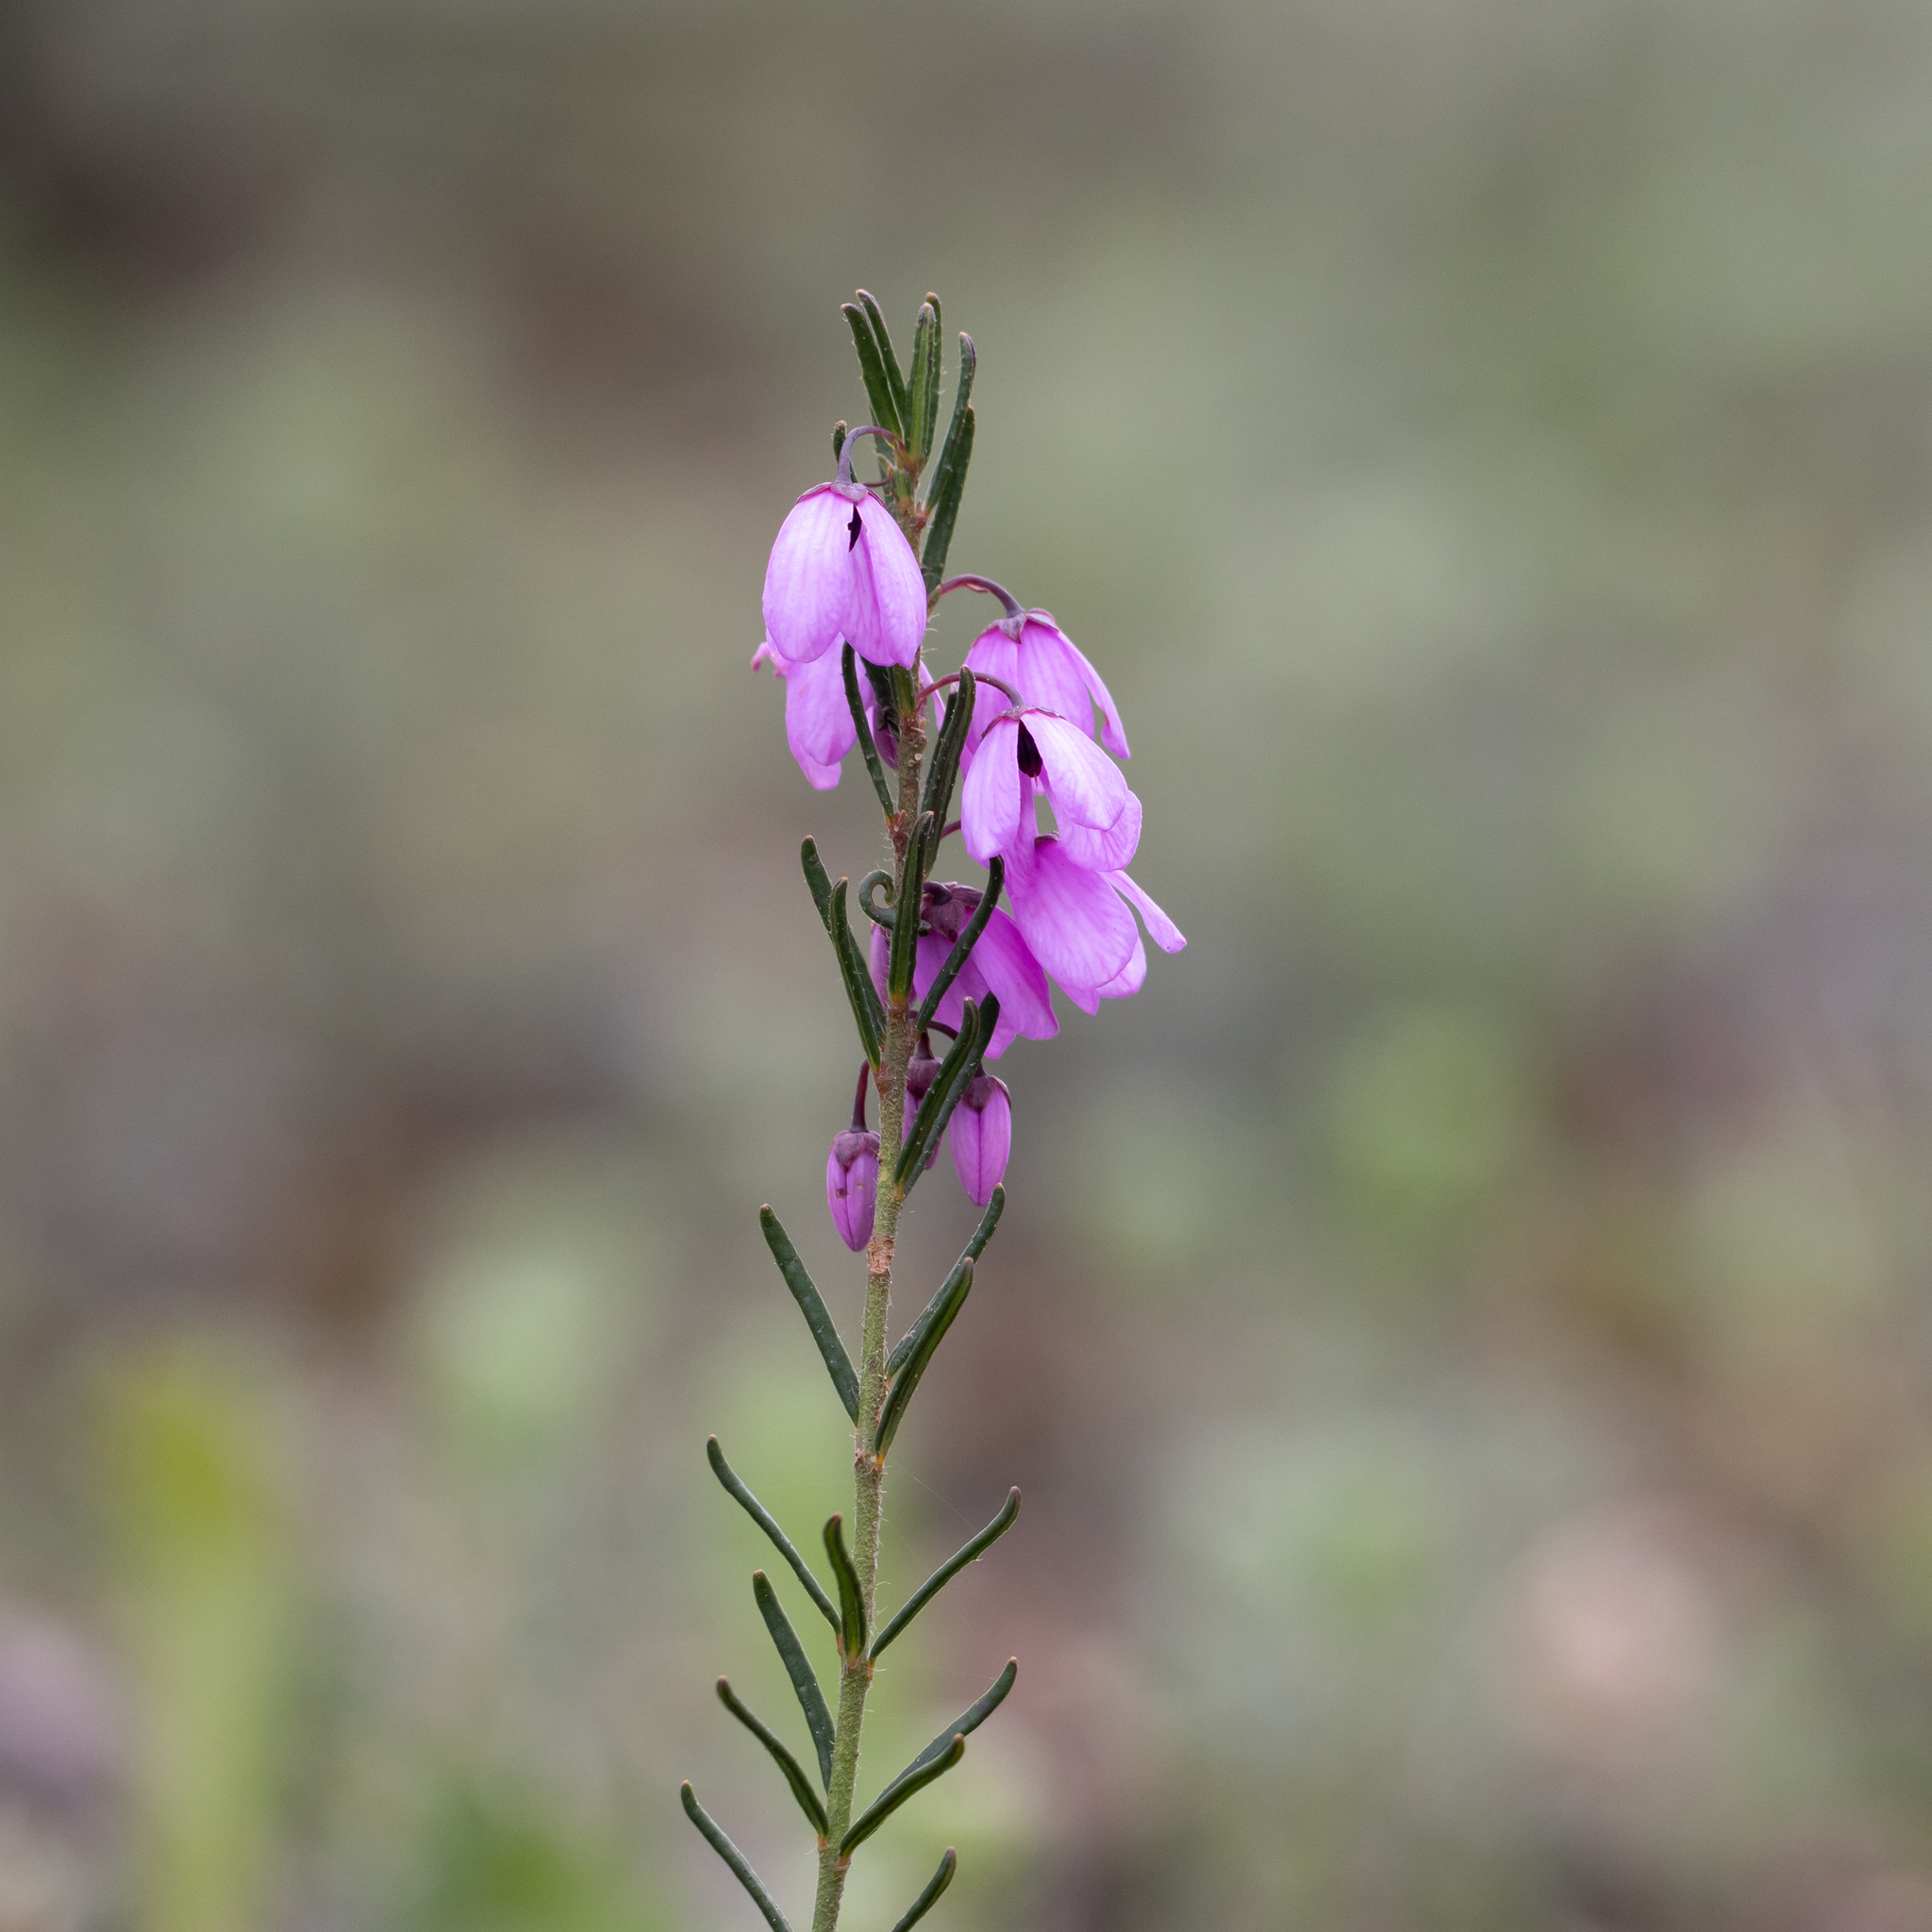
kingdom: Plantae
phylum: Tracheophyta
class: Magnoliopsida
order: Oxalidales
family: Elaeocarpaceae
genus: Tetratheca
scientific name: Tetratheca pilosa
